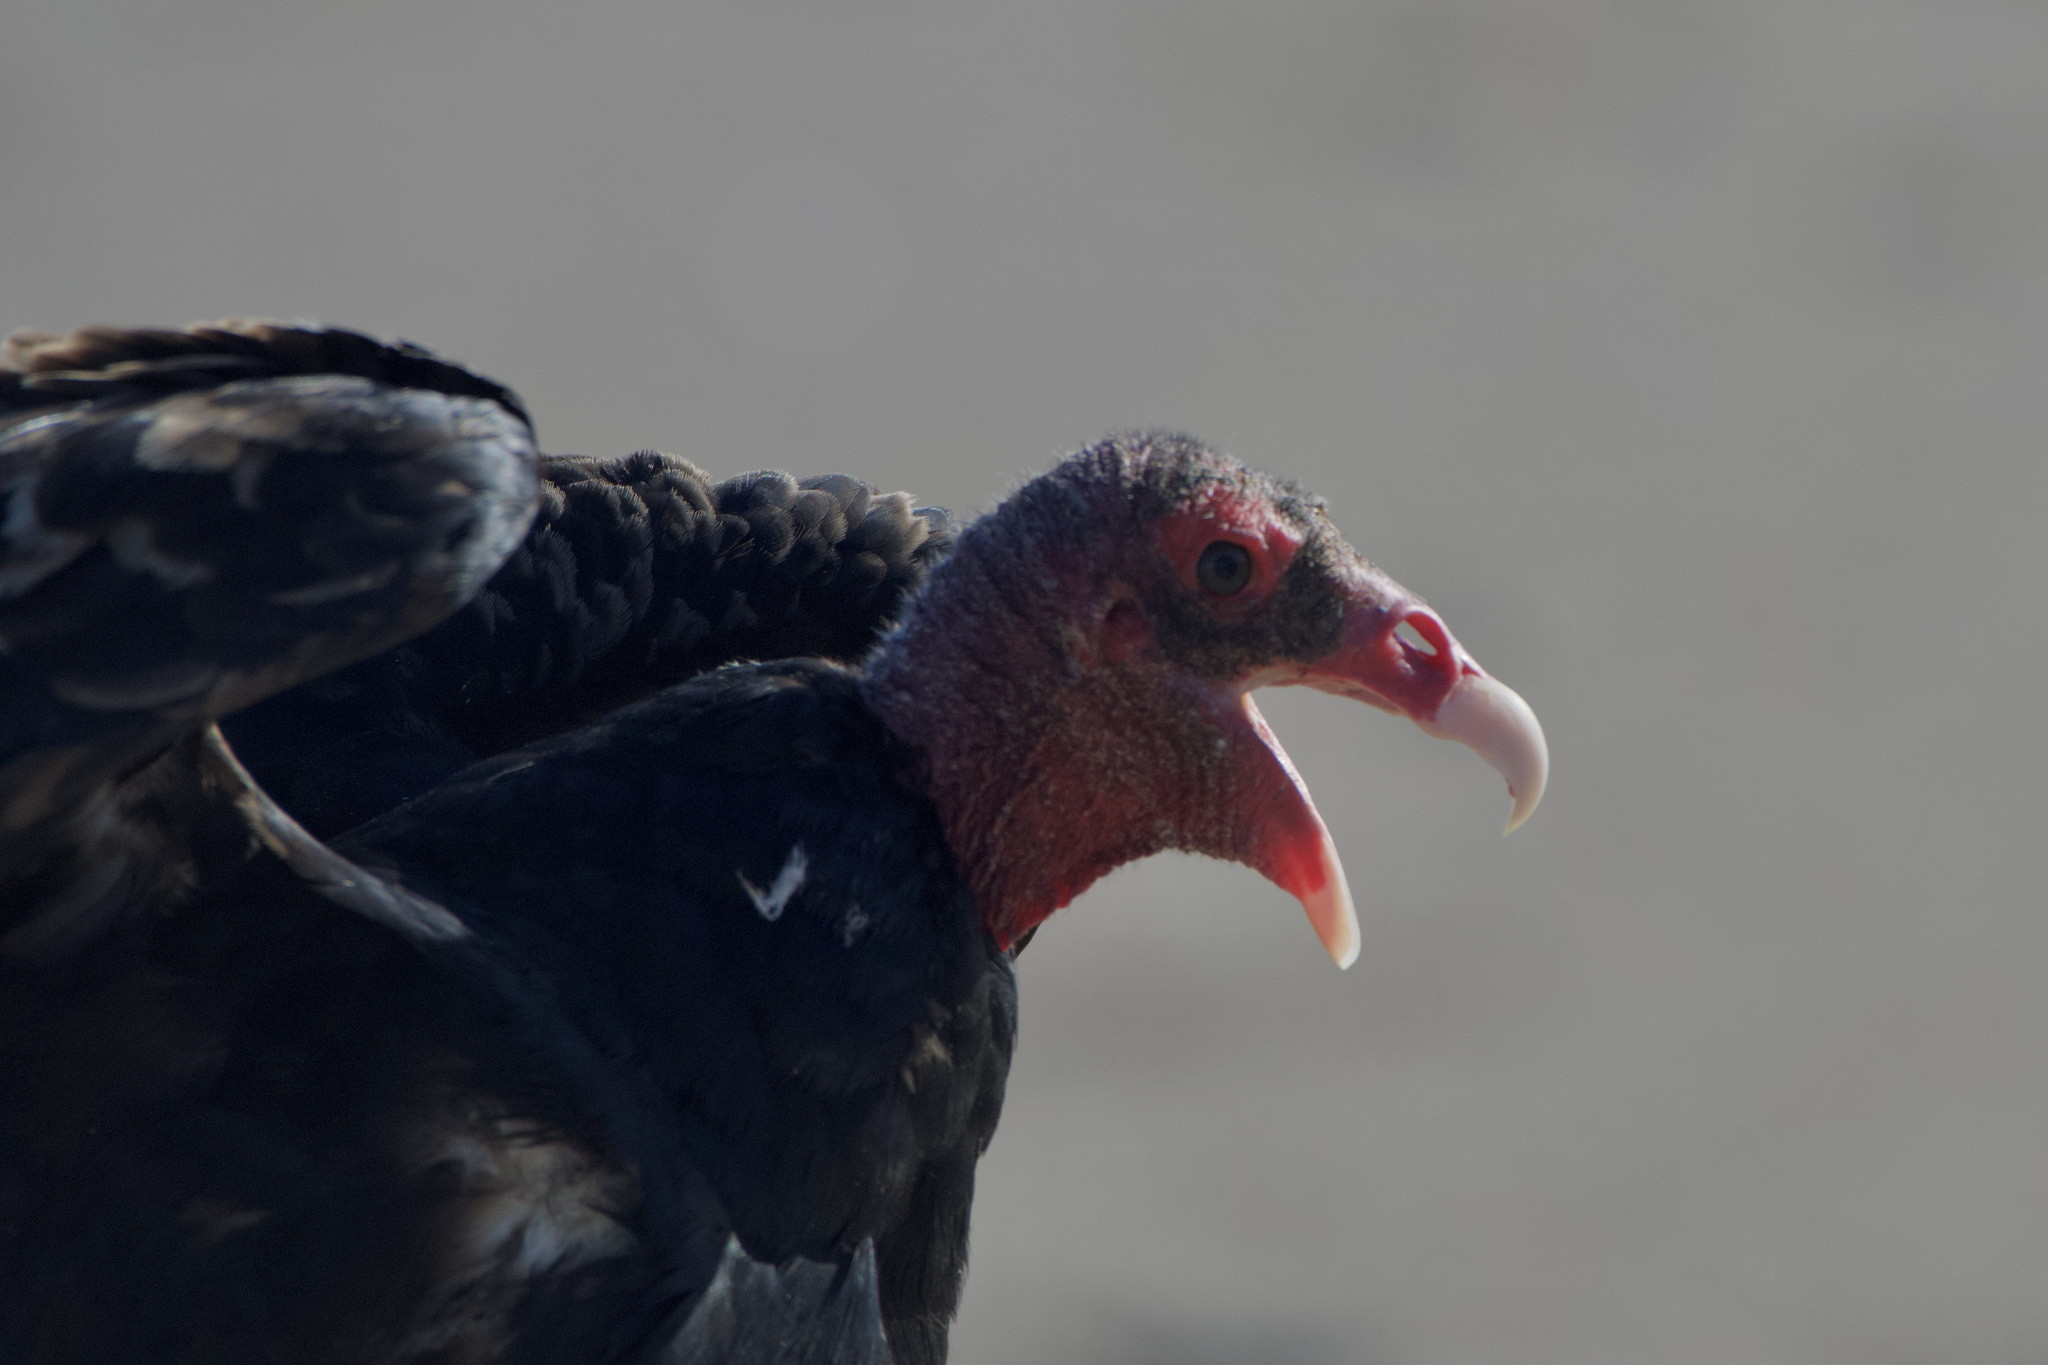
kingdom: Animalia
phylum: Chordata
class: Aves
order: Accipitriformes
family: Cathartidae
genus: Cathartes
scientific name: Cathartes aura
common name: Turkey vulture
